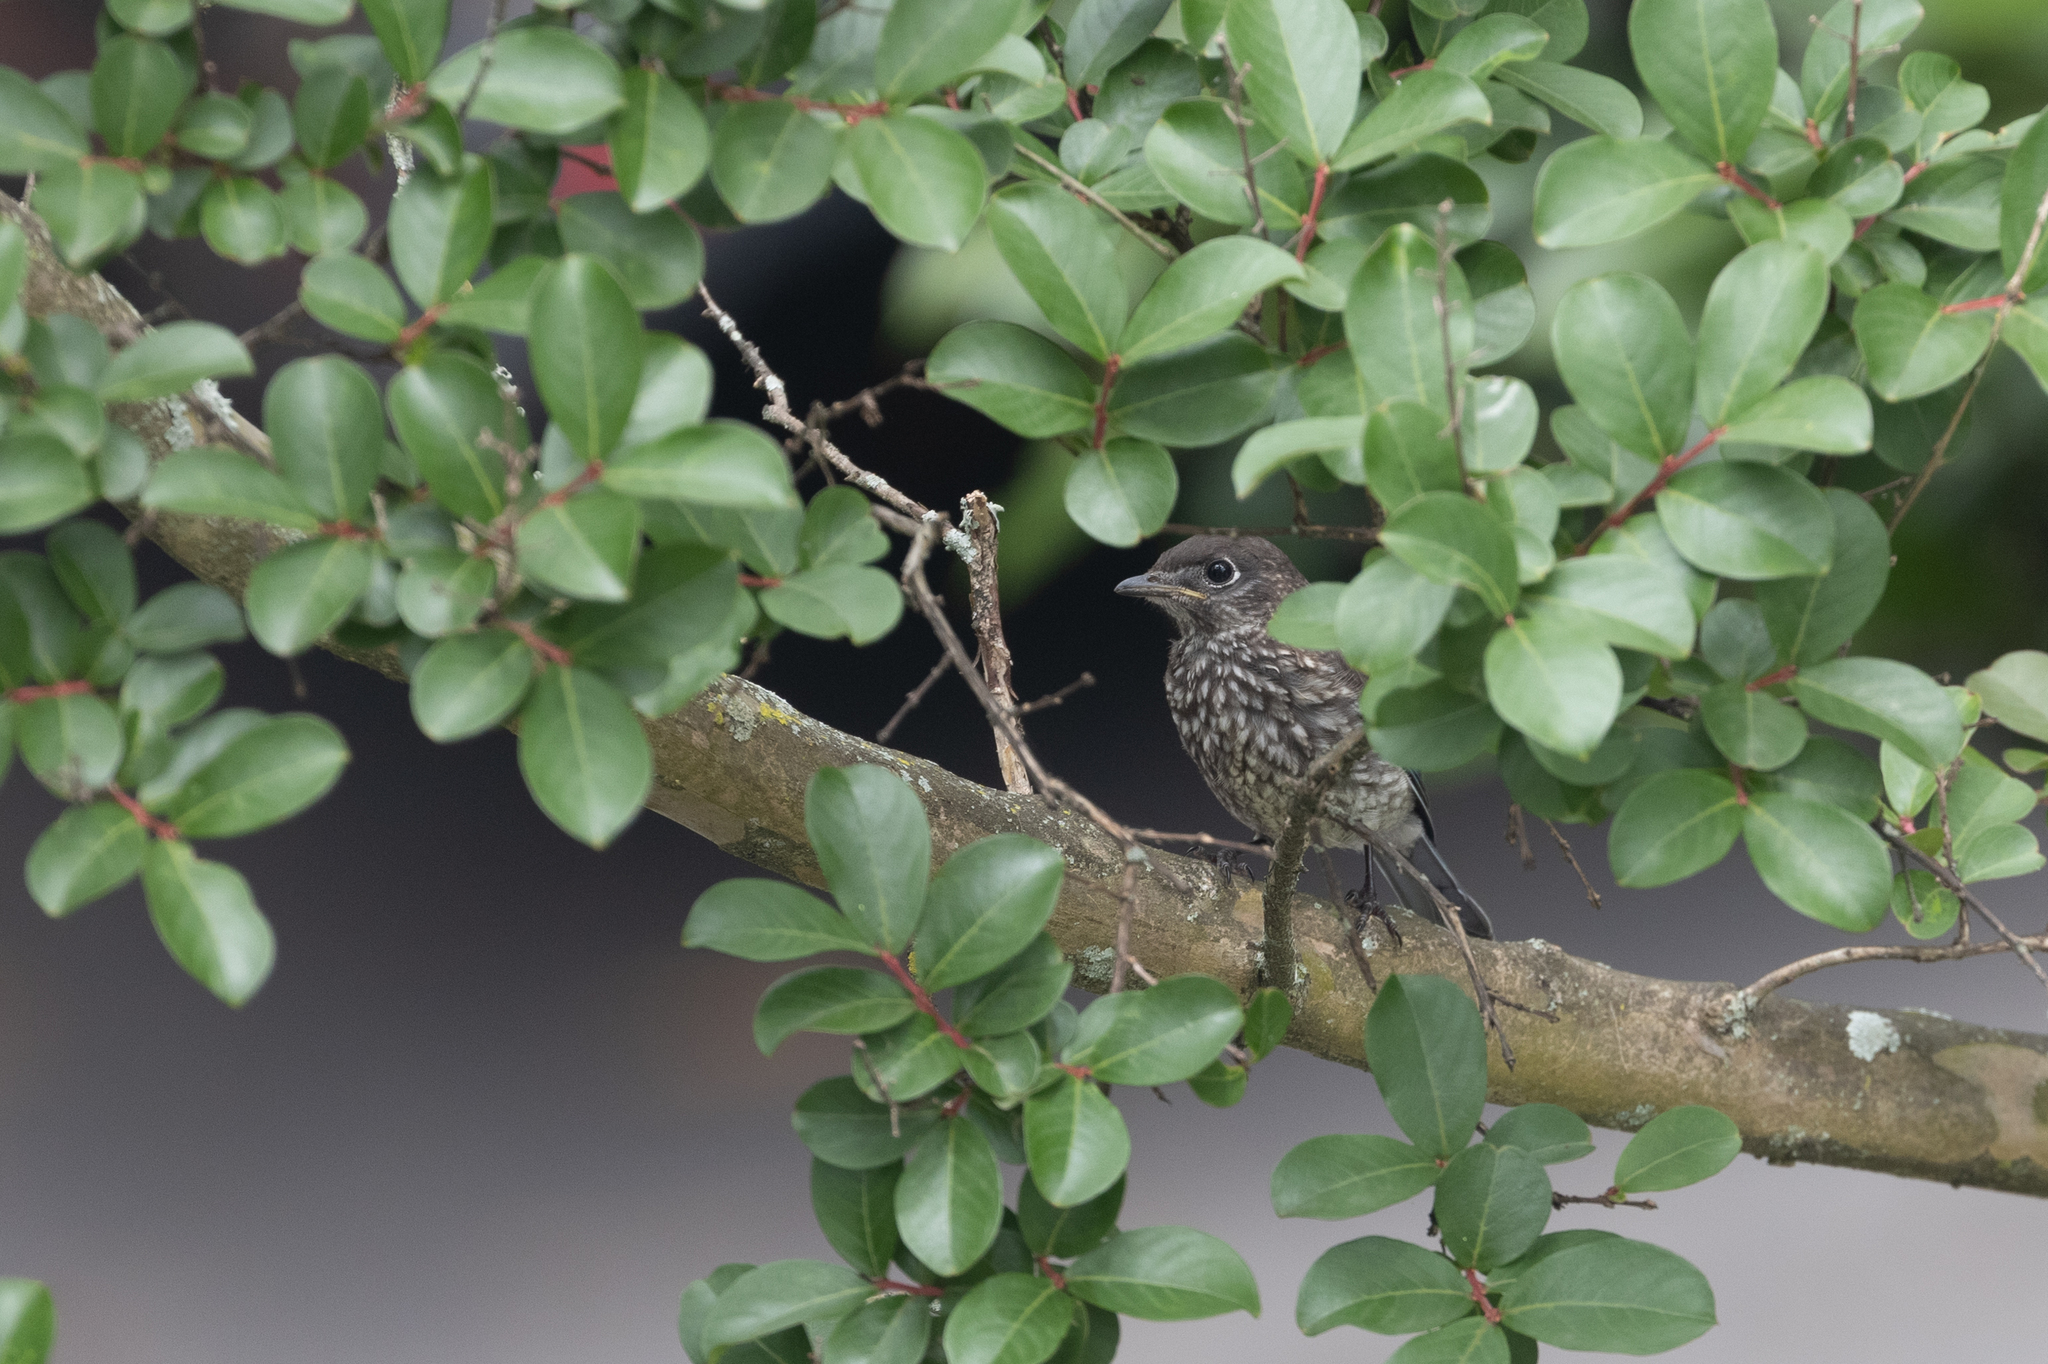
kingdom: Animalia
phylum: Chordata
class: Aves
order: Passeriformes
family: Turdidae
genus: Sialia
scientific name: Sialia sialis
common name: Eastern bluebird
